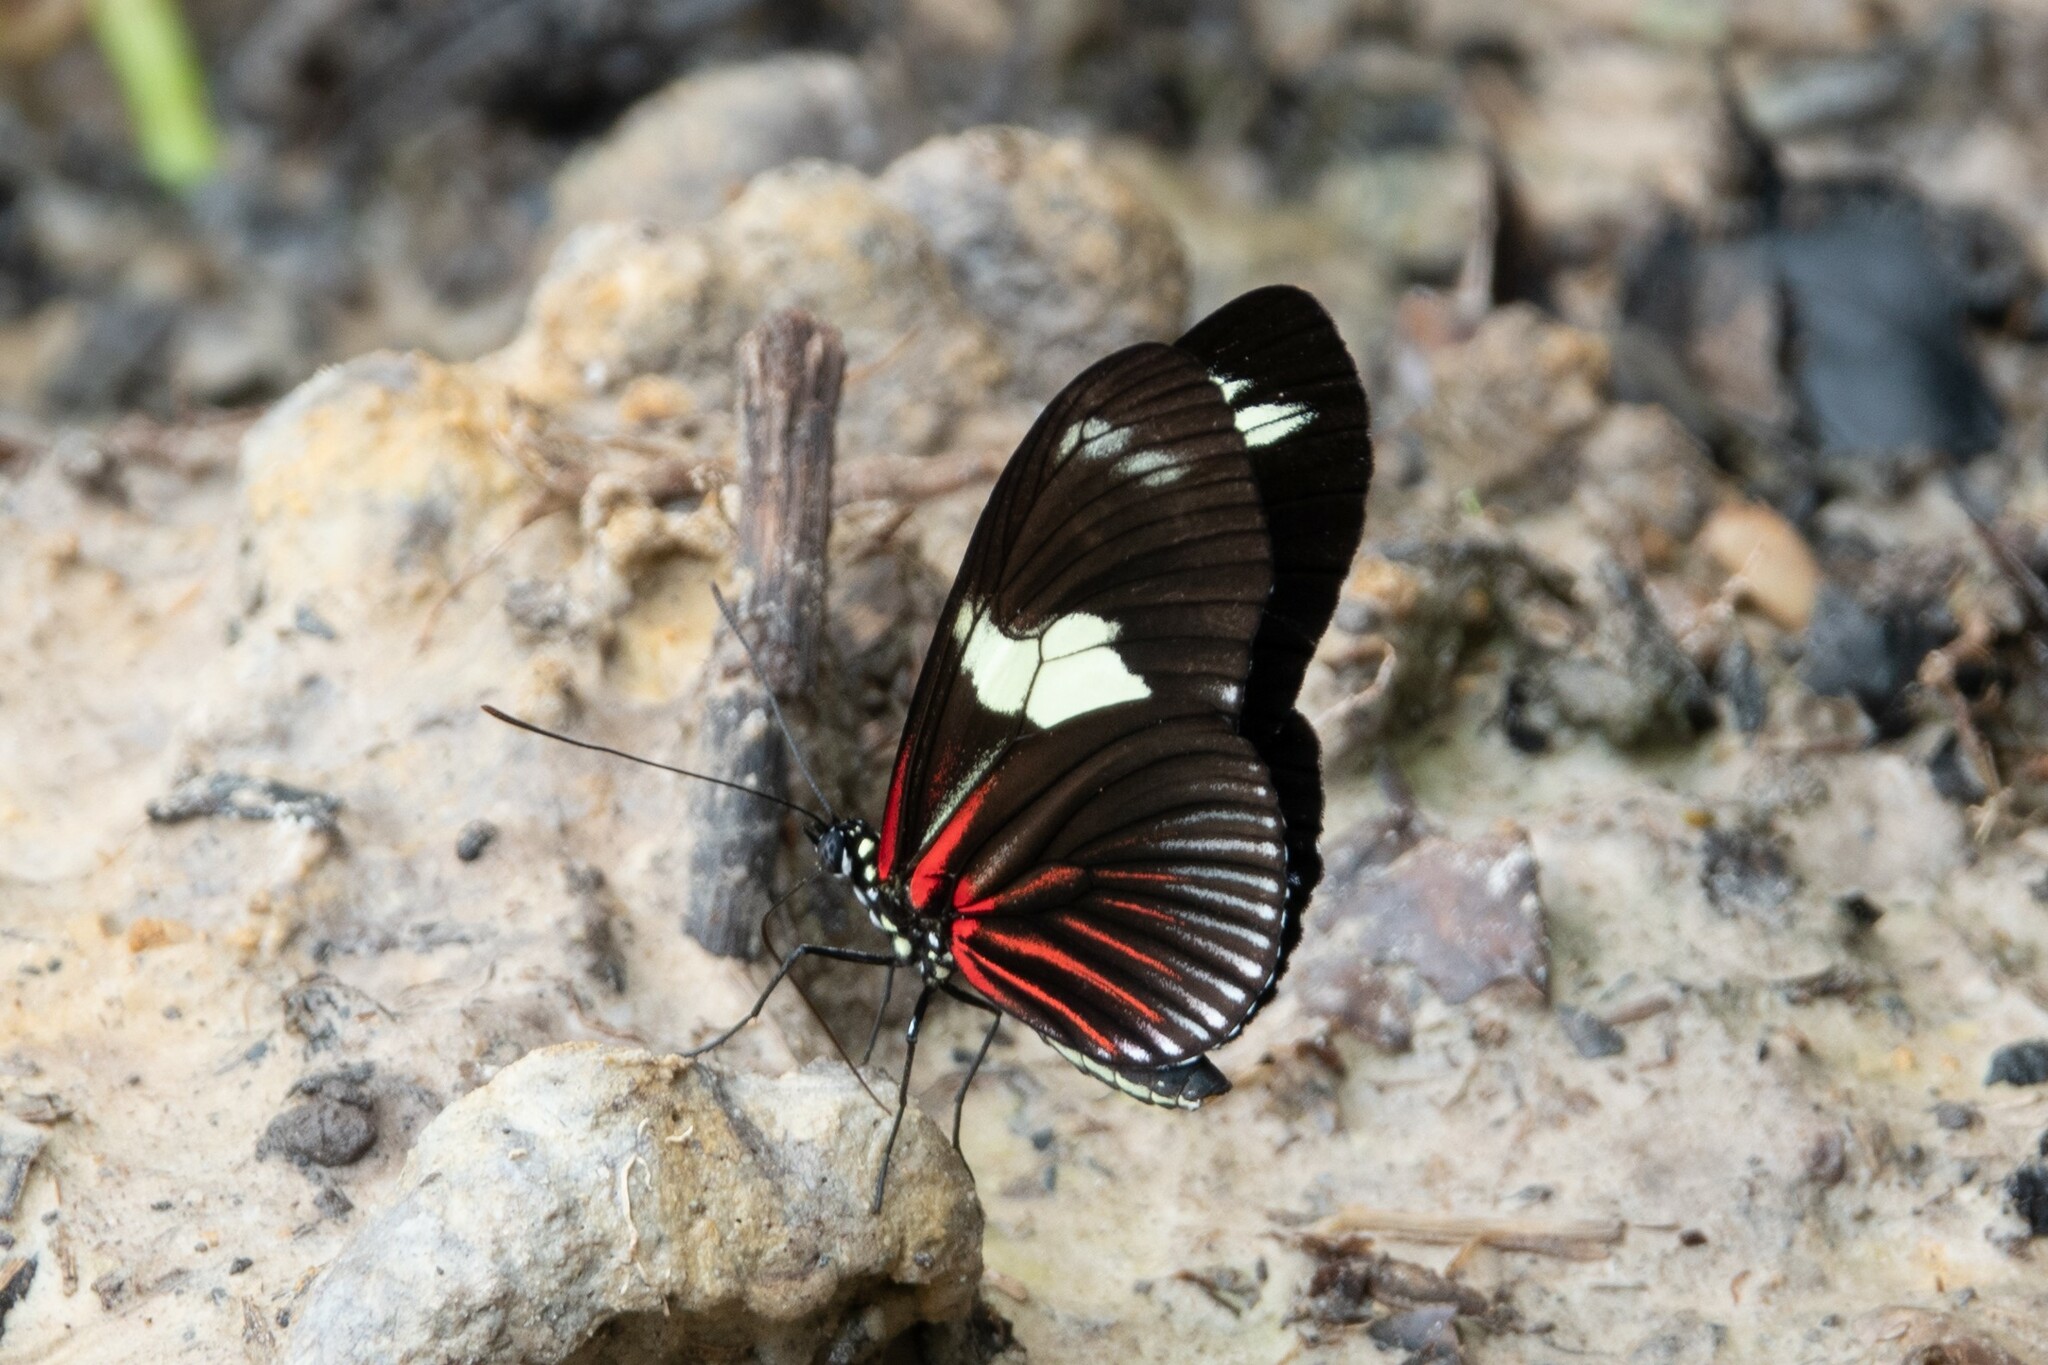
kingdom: Animalia
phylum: Arthropoda
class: Insecta
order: Lepidoptera
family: Nymphalidae
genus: Heliconius
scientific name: Heliconius doris
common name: Doris longwing
